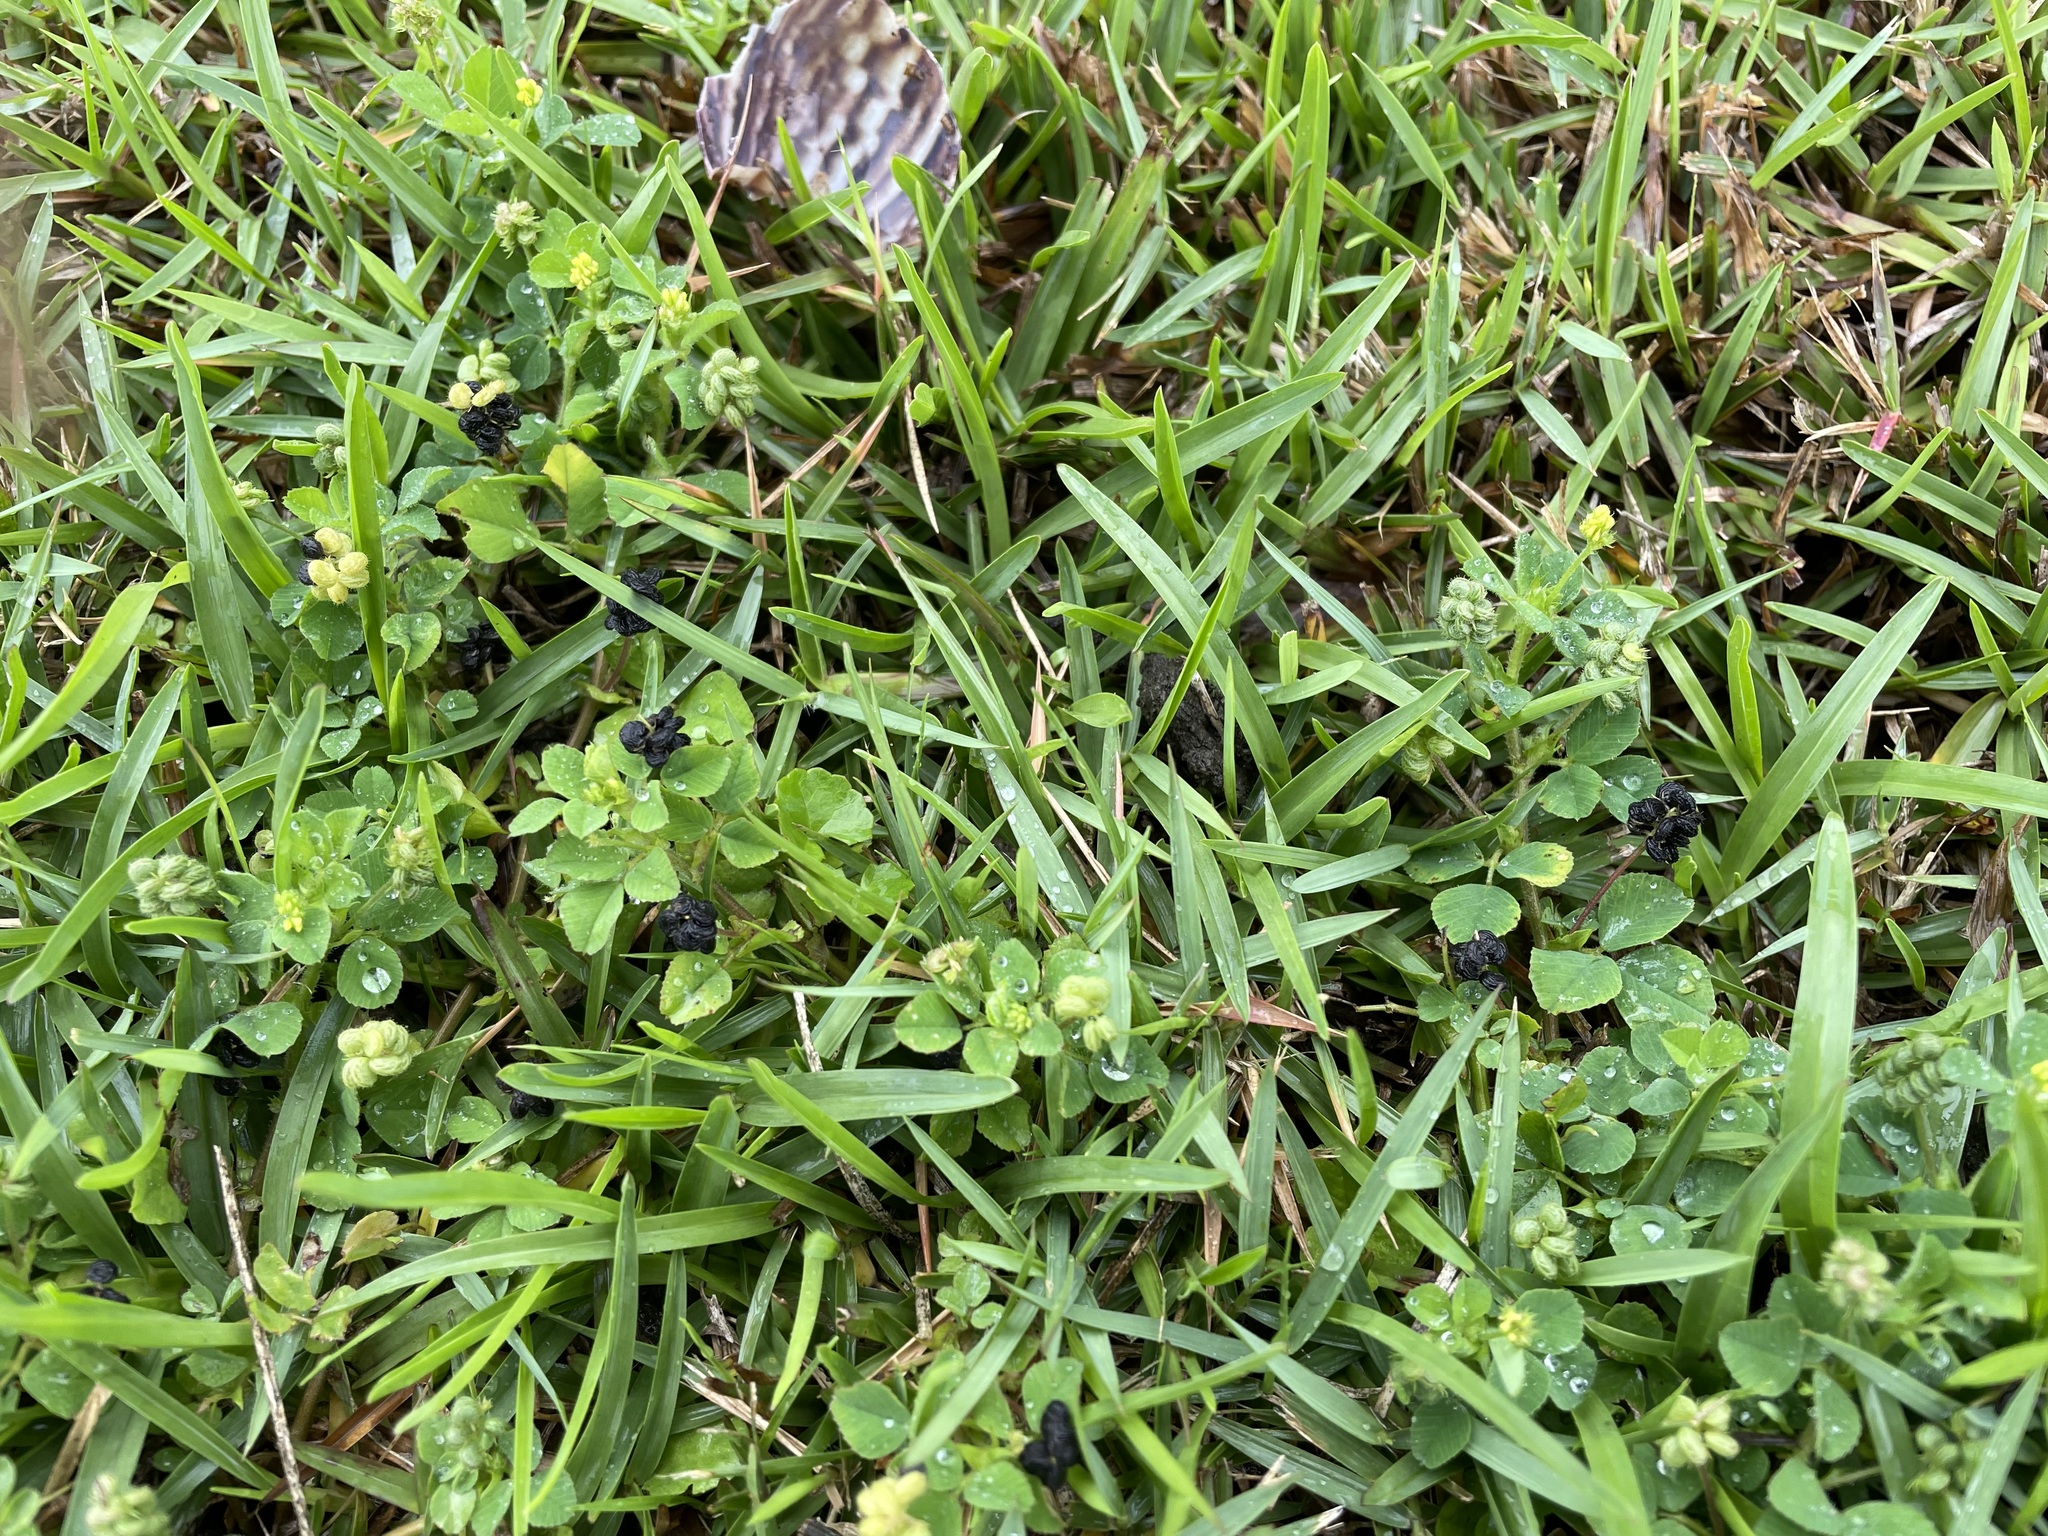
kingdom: Plantae
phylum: Tracheophyta
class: Magnoliopsida
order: Fabales
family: Fabaceae
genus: Medicago
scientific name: Medicago lupulina
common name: Black medick
